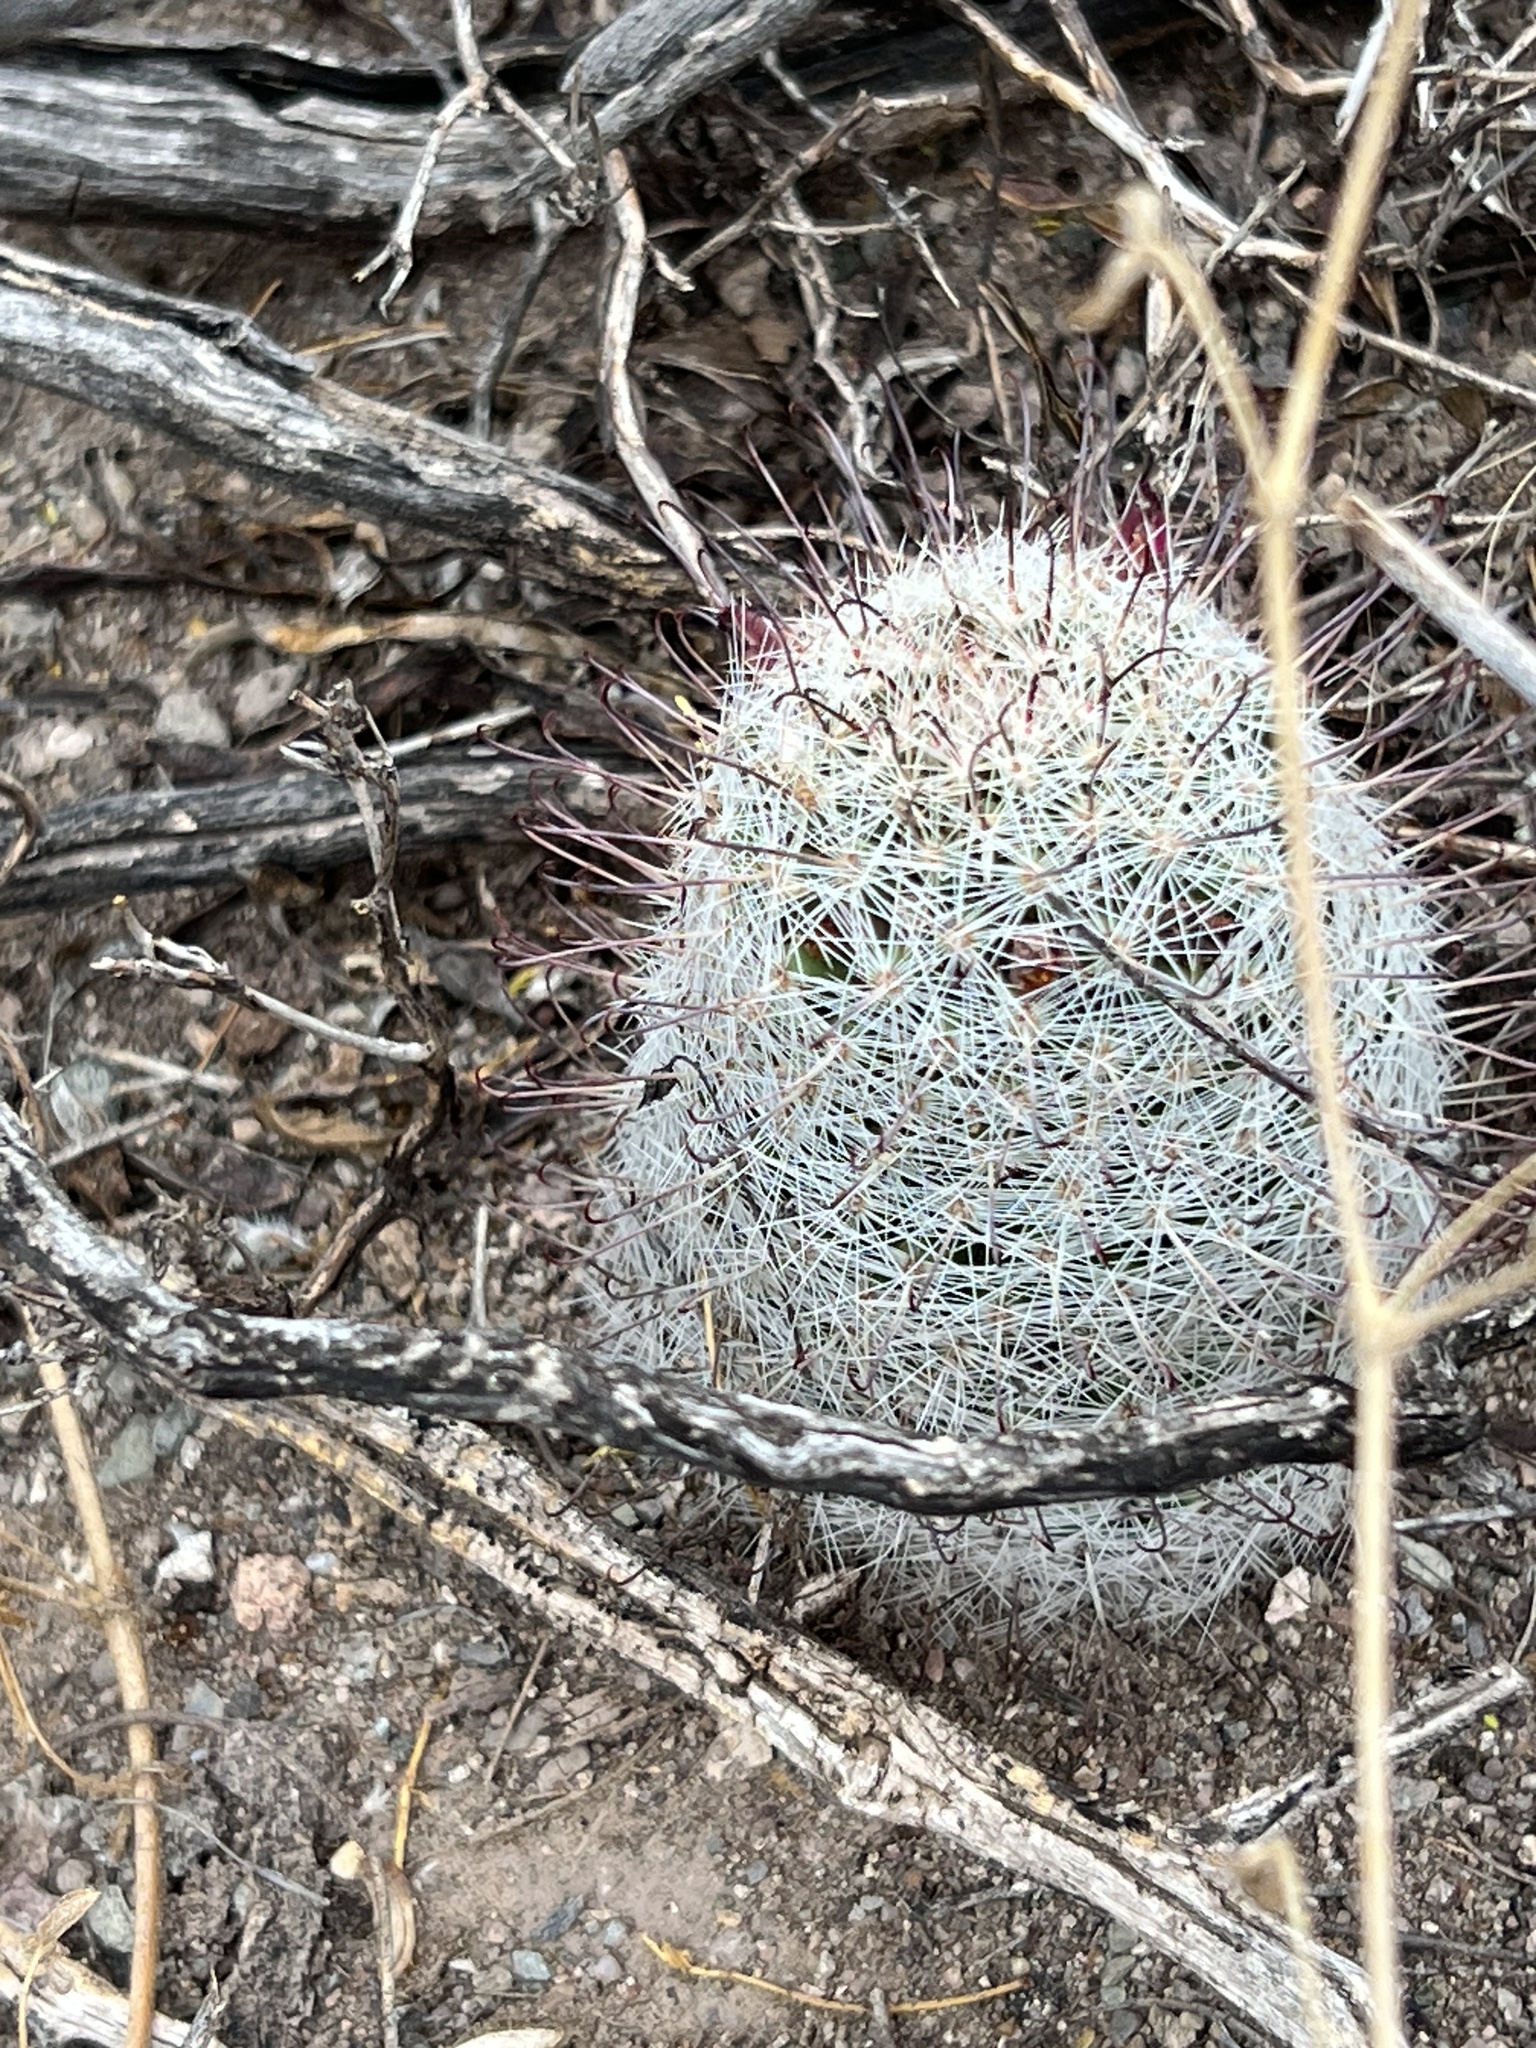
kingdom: Plantae
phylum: Tracheophyta
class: Magnoliopsida
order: Caryophyllales
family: Cactaceae
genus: Cochemiea
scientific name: Cochemiea grahamii
